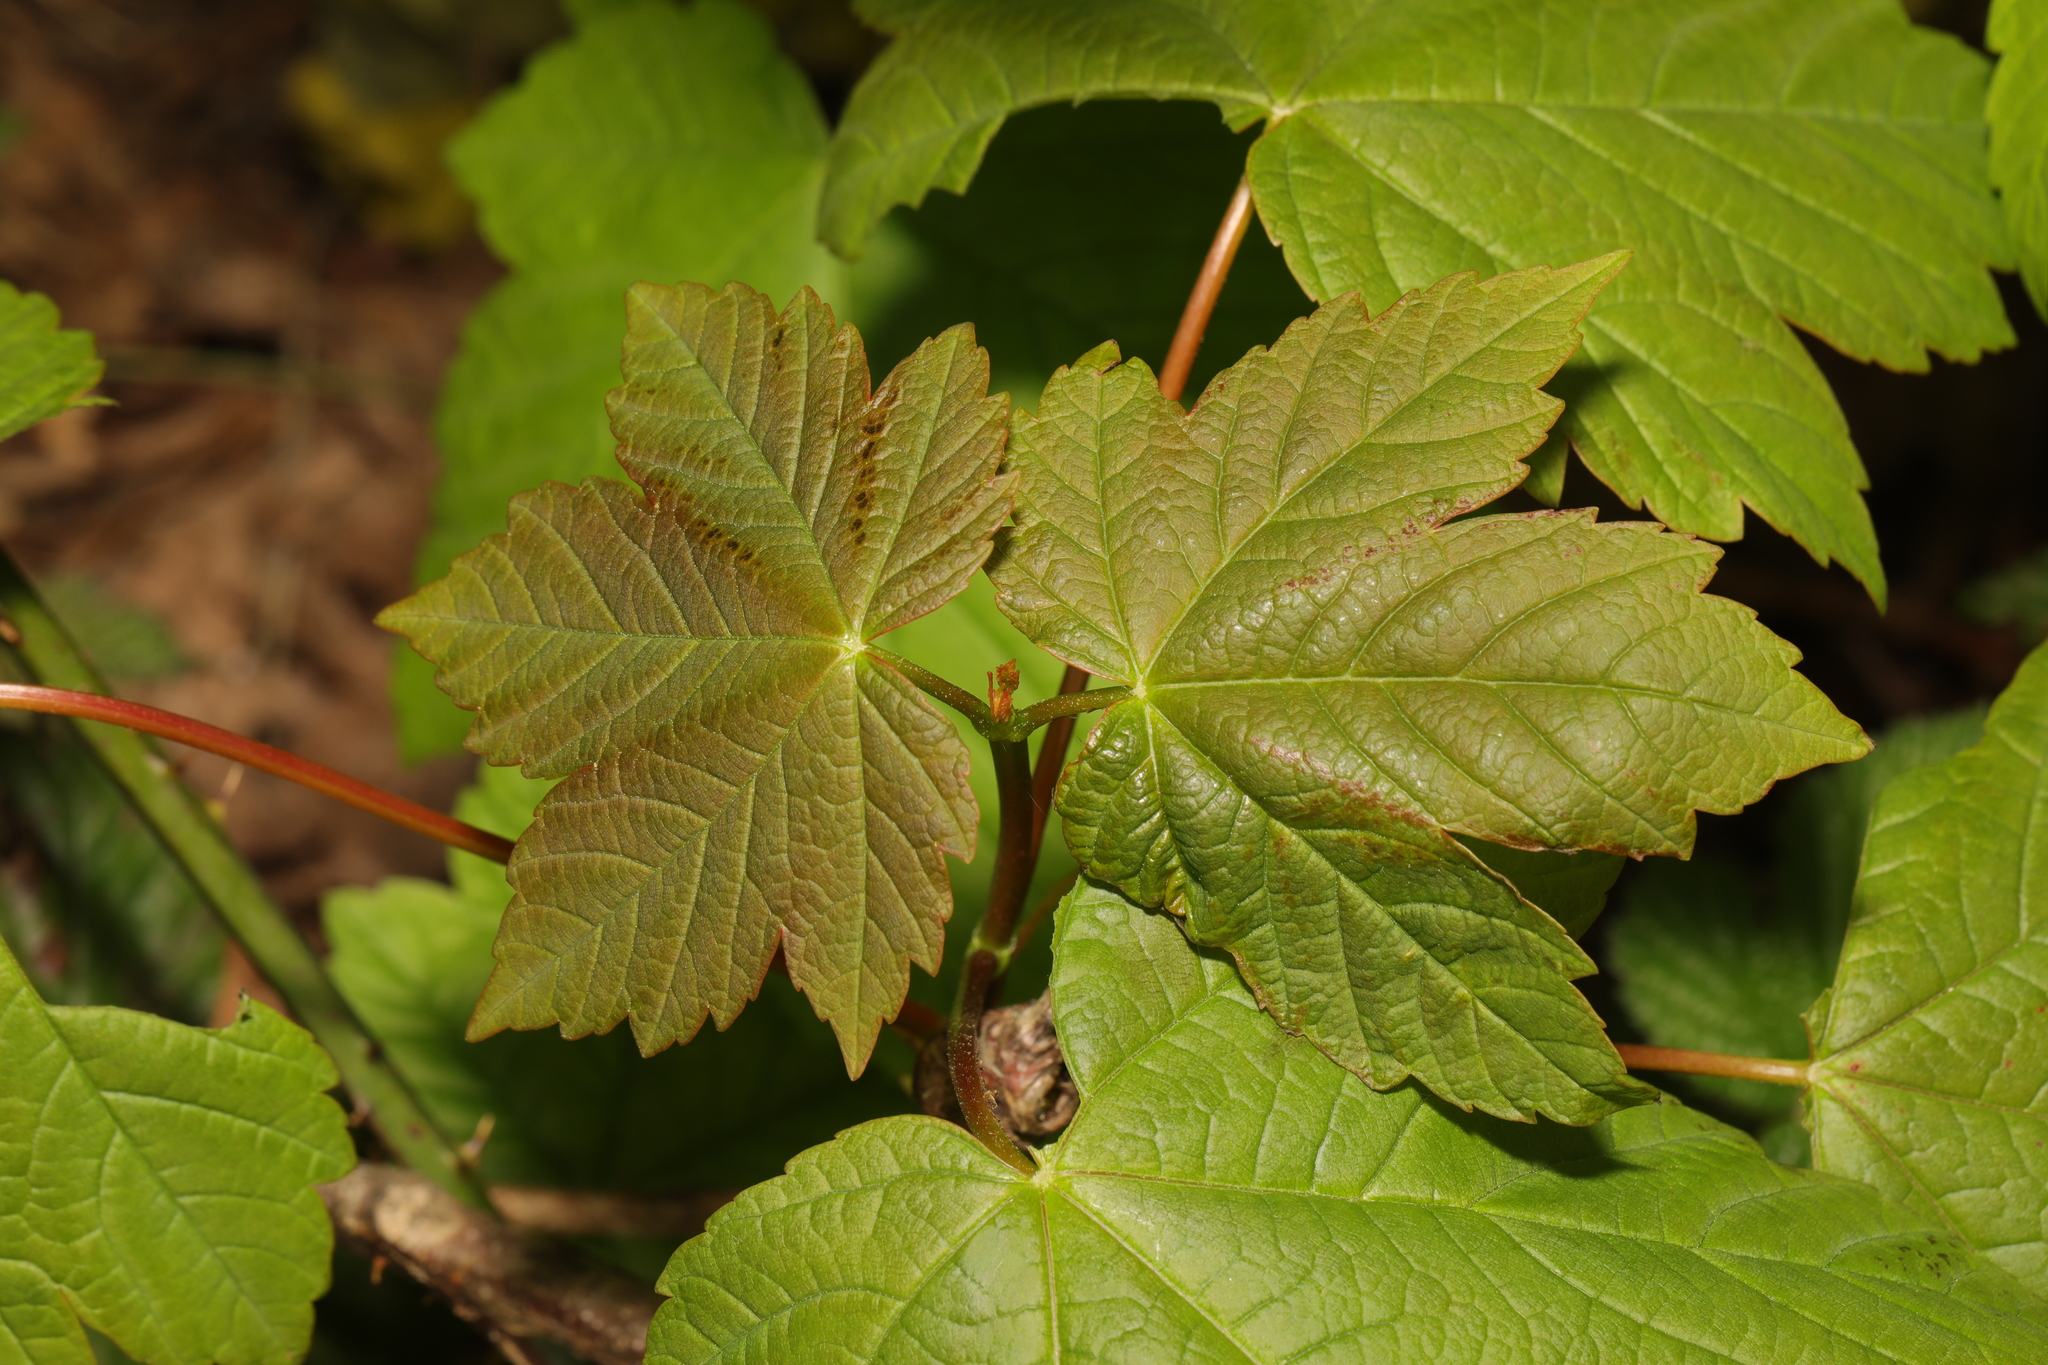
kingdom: Plantae
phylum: Tracheophyta
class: Magnoliopsida
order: Sapindales
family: Sapindaceae
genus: Acer
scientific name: Acer pseudoplatanus
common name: Sycamore
